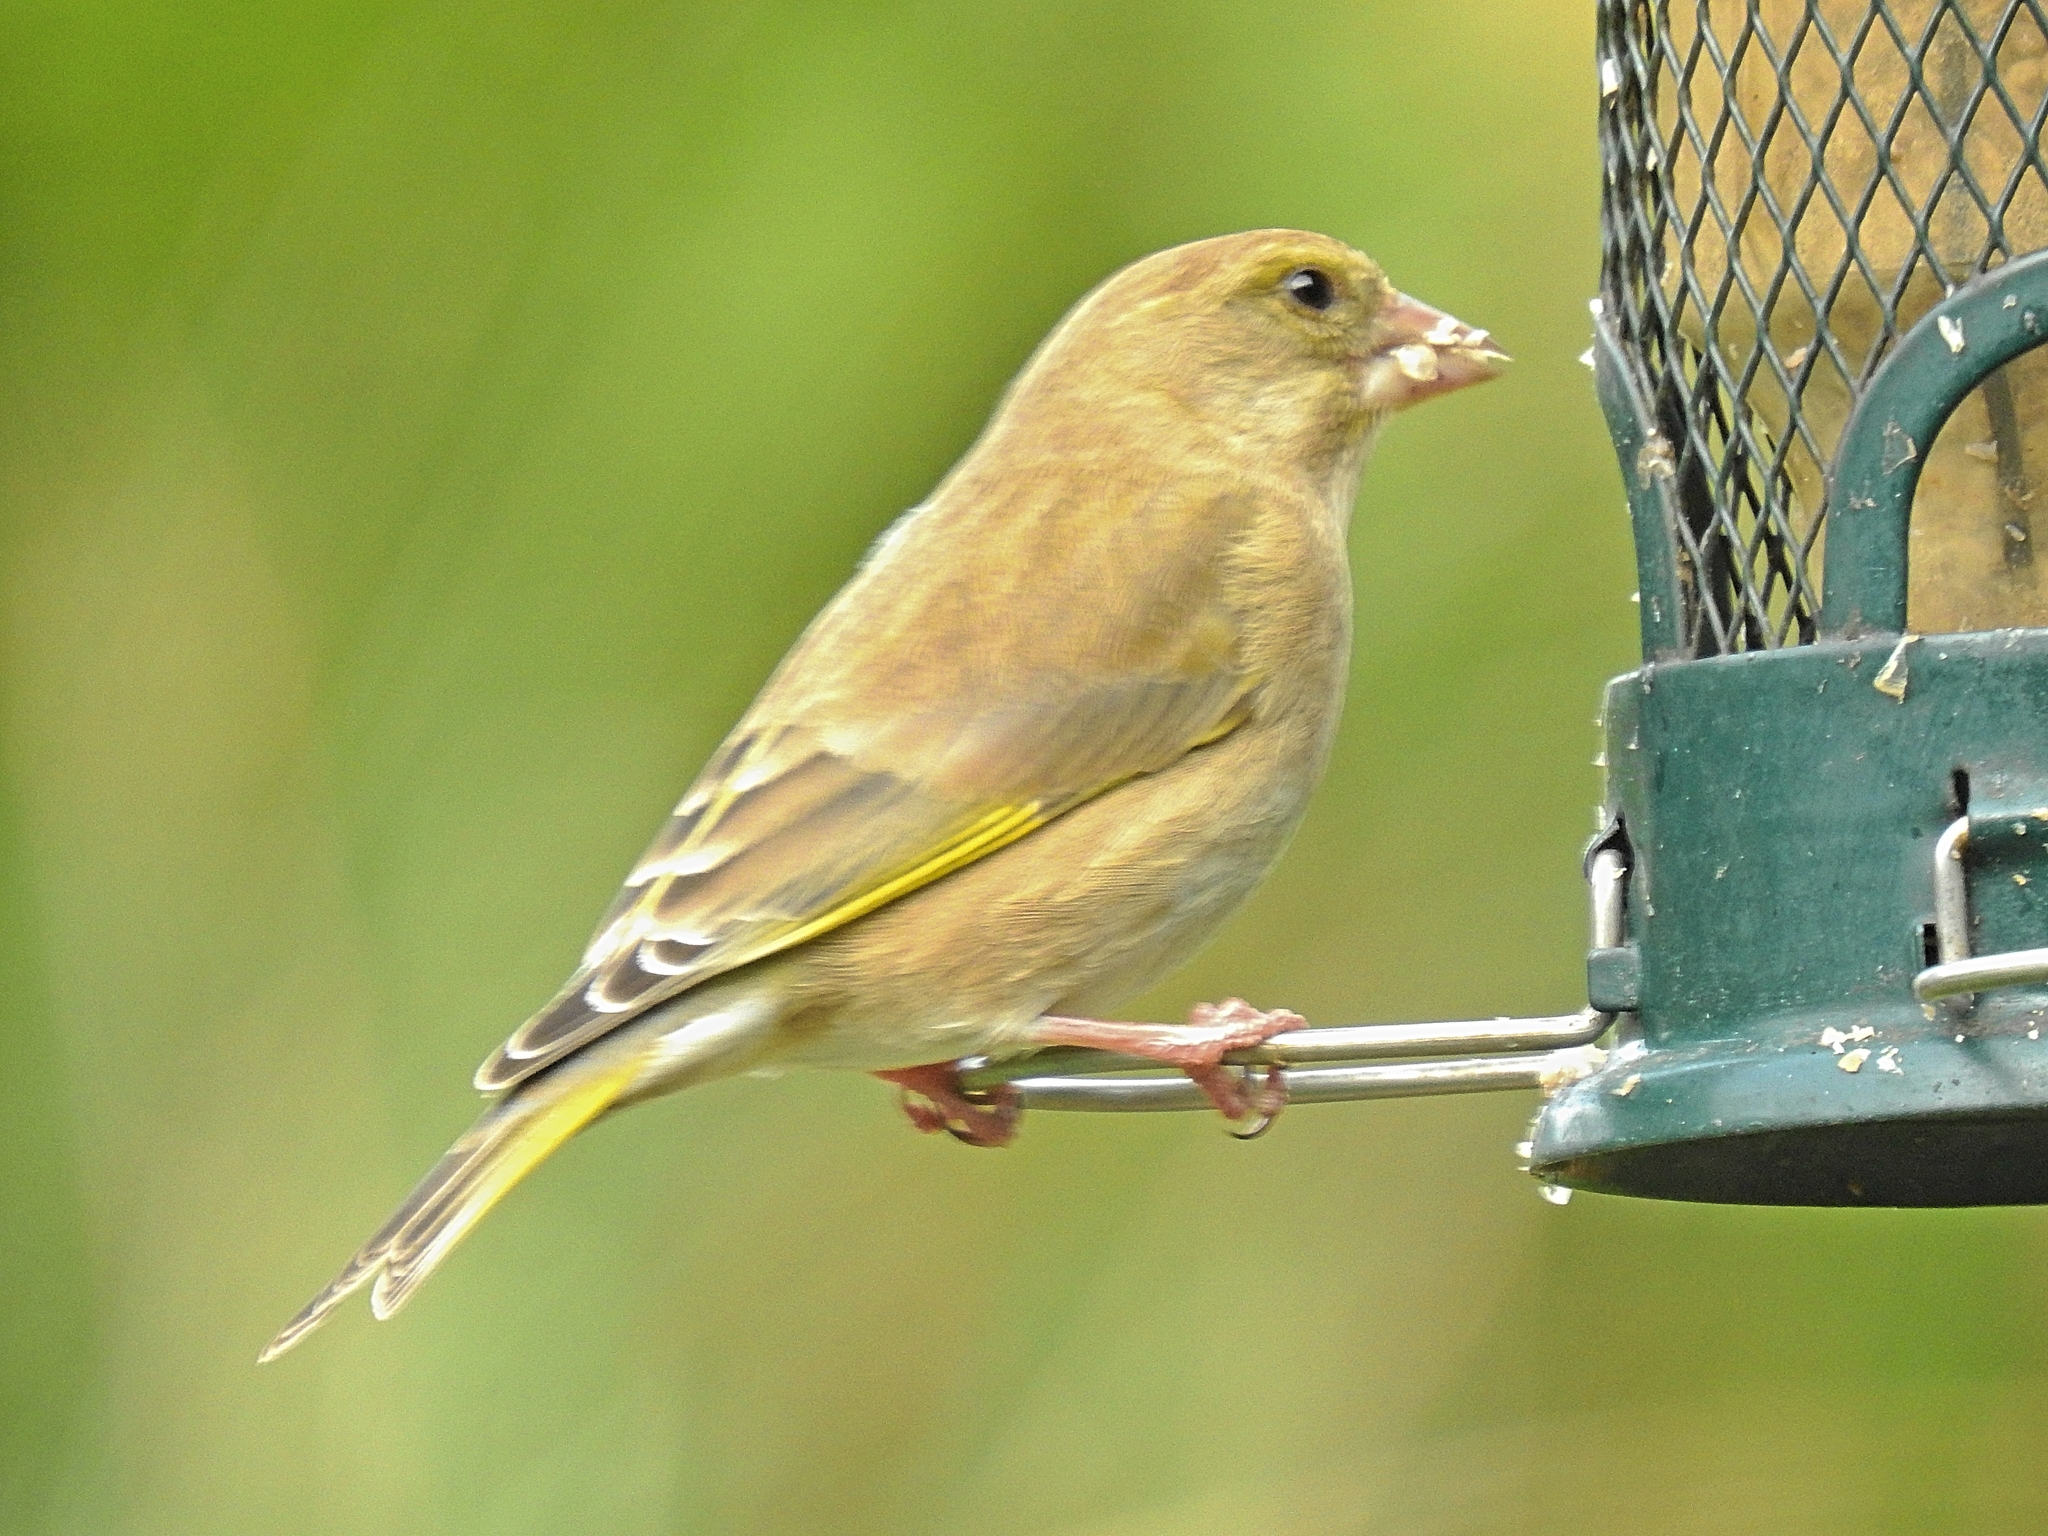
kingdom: Plantae
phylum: Tracheophyta
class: Liliopsida
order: Poales
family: Poaceae
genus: Chloris
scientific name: Chloris chloris
